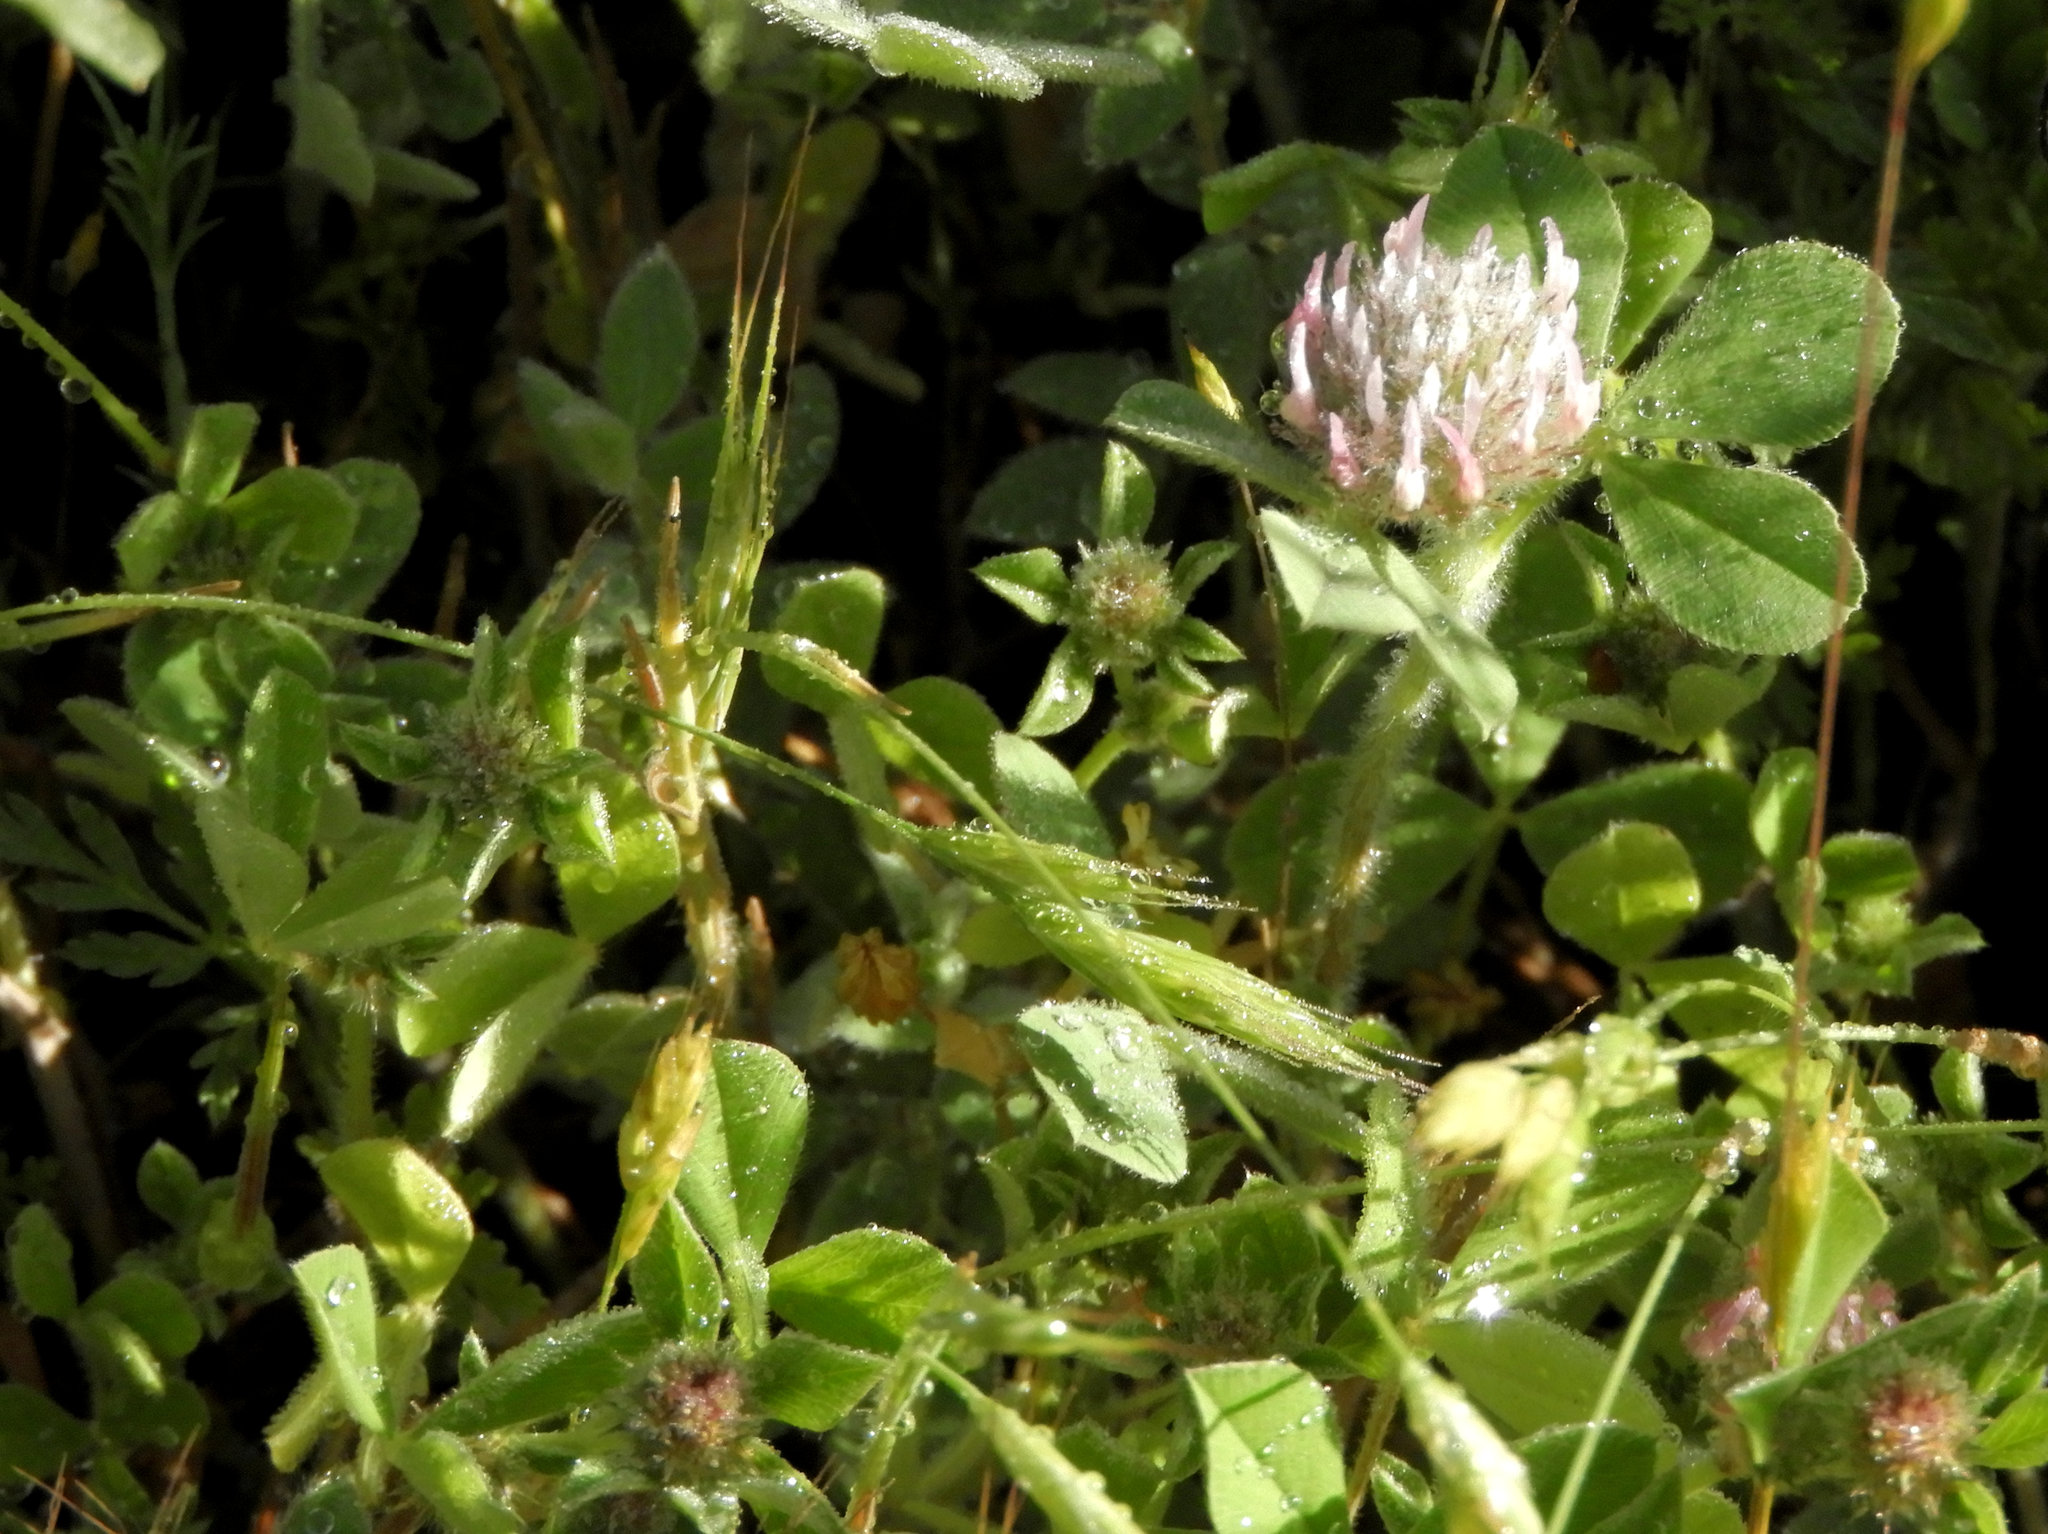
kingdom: Plantae
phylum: Tracheophyta
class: Magnoliopsida
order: Fabales
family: Fabaceae
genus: Trifolium
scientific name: Trifolium hirtum
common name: Rose clover
